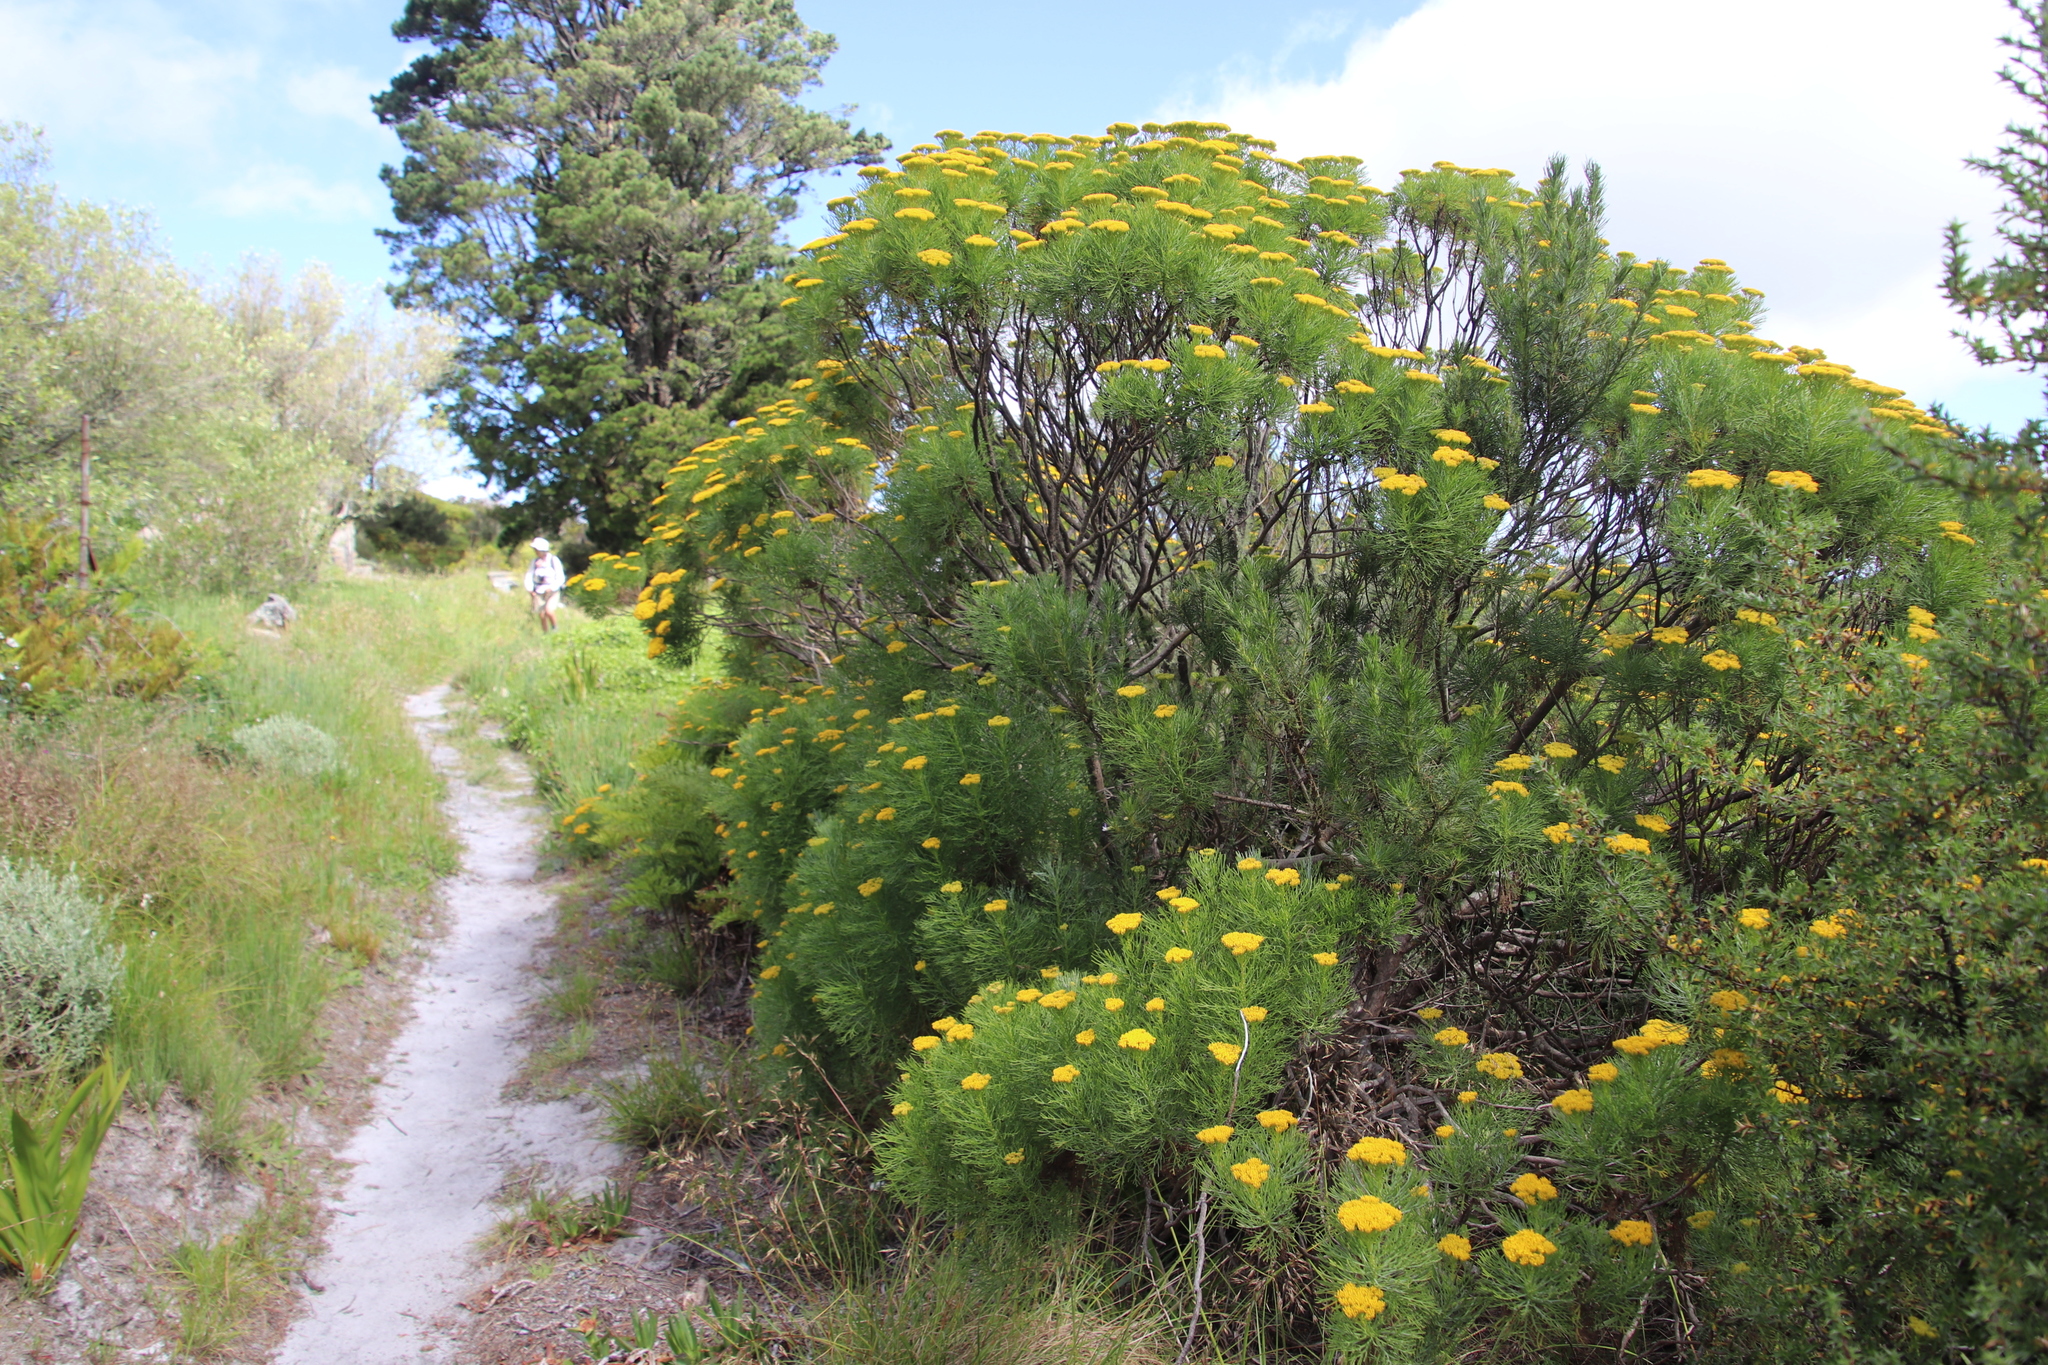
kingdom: Plantae
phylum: Tracheophyta
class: Magnoliopsida
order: Asterales
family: Asteraceae
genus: Hymenolepis
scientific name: Hymenolepis crithmifolia
